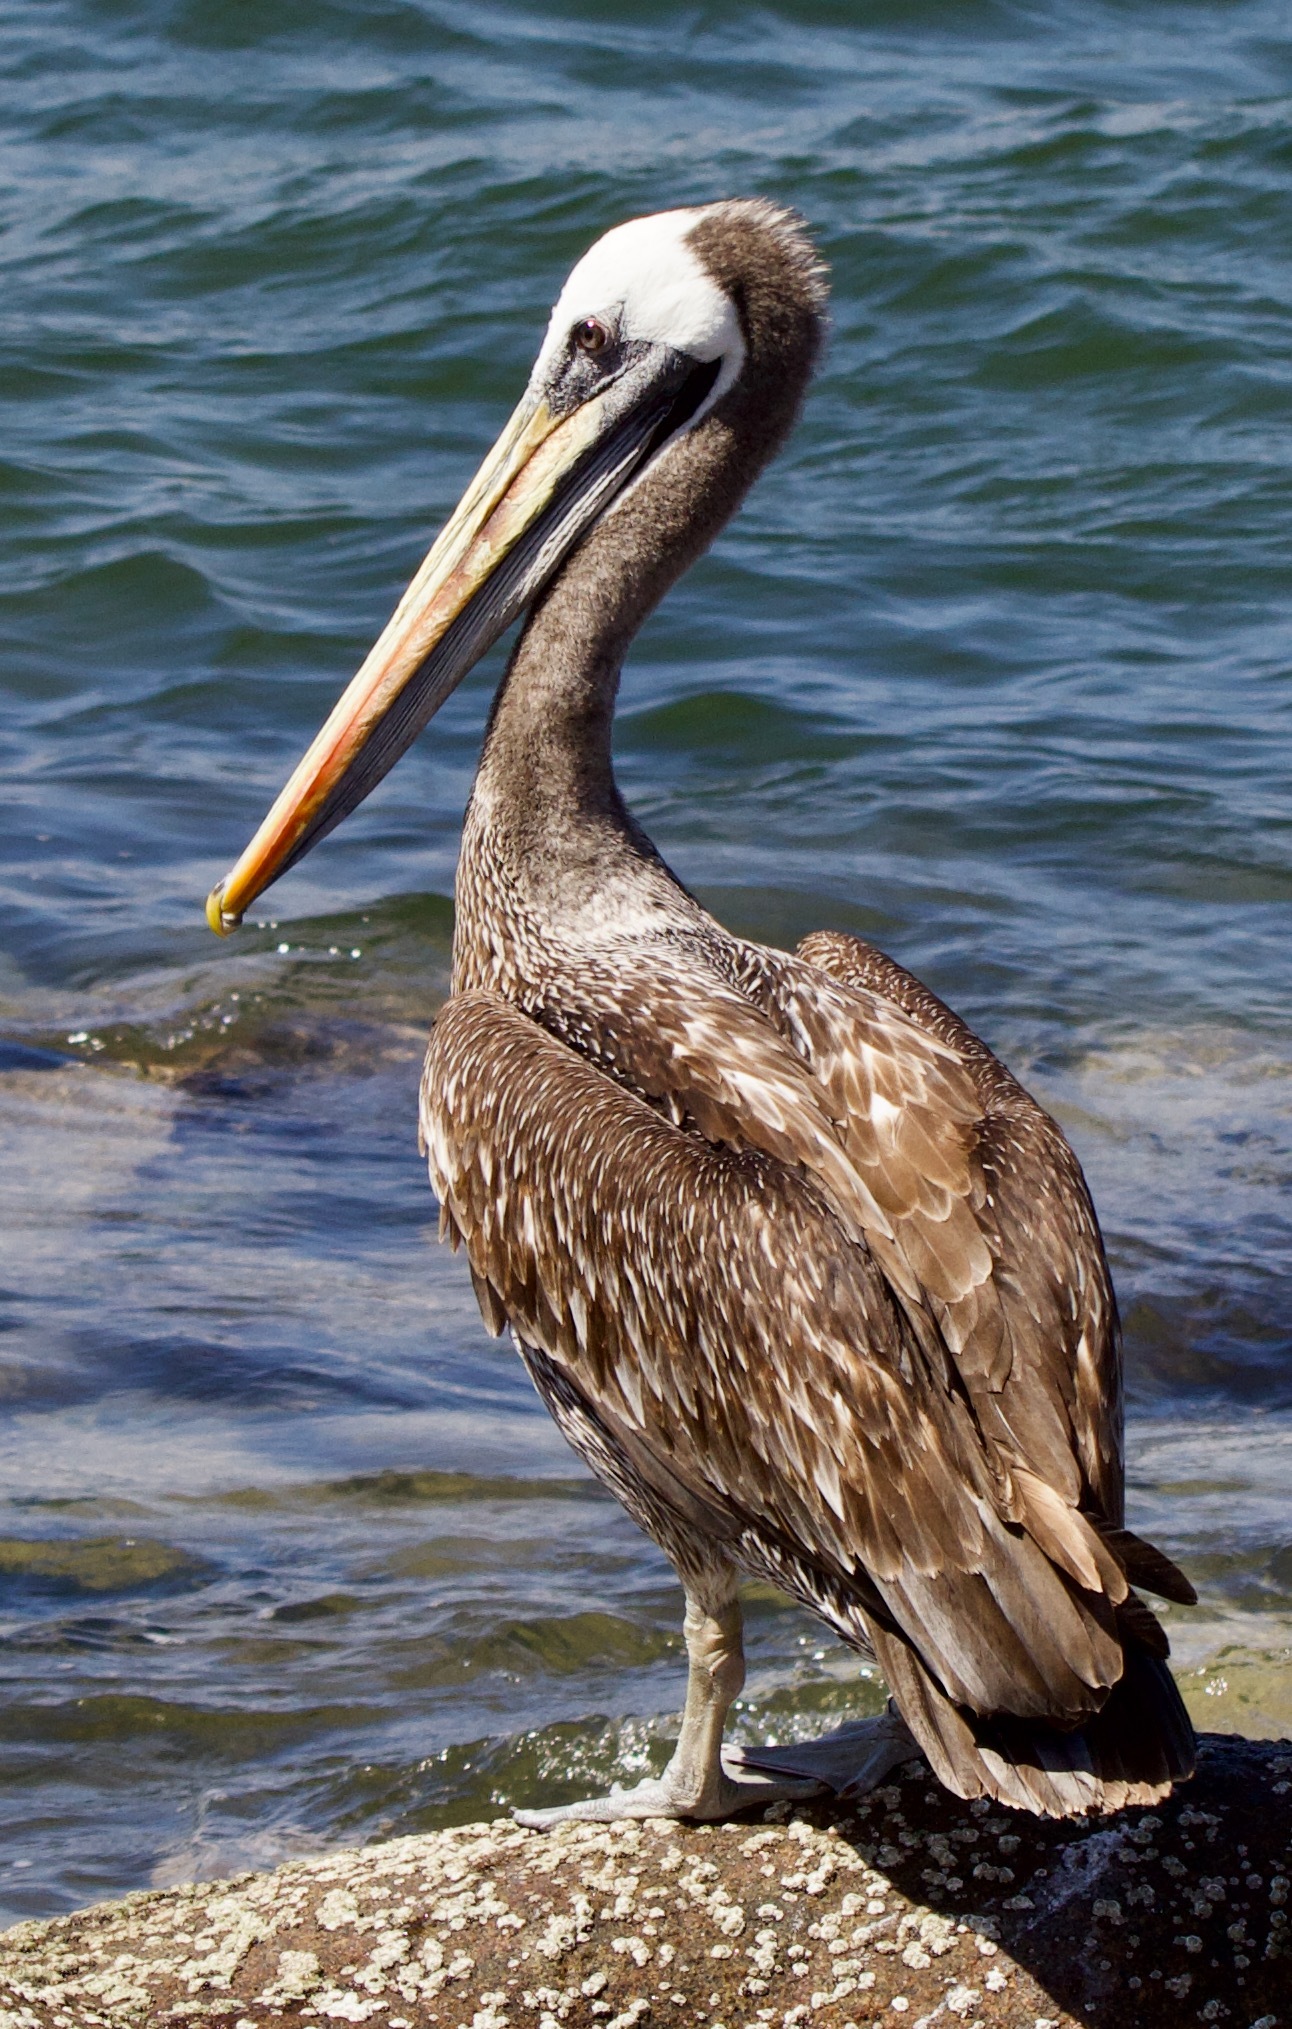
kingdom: Animalia
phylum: Chordata
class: Aves
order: Pelecaniformes
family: Pelecanidae
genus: Pelecanus
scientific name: Pelecanus thagus
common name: Peruvian pelican
